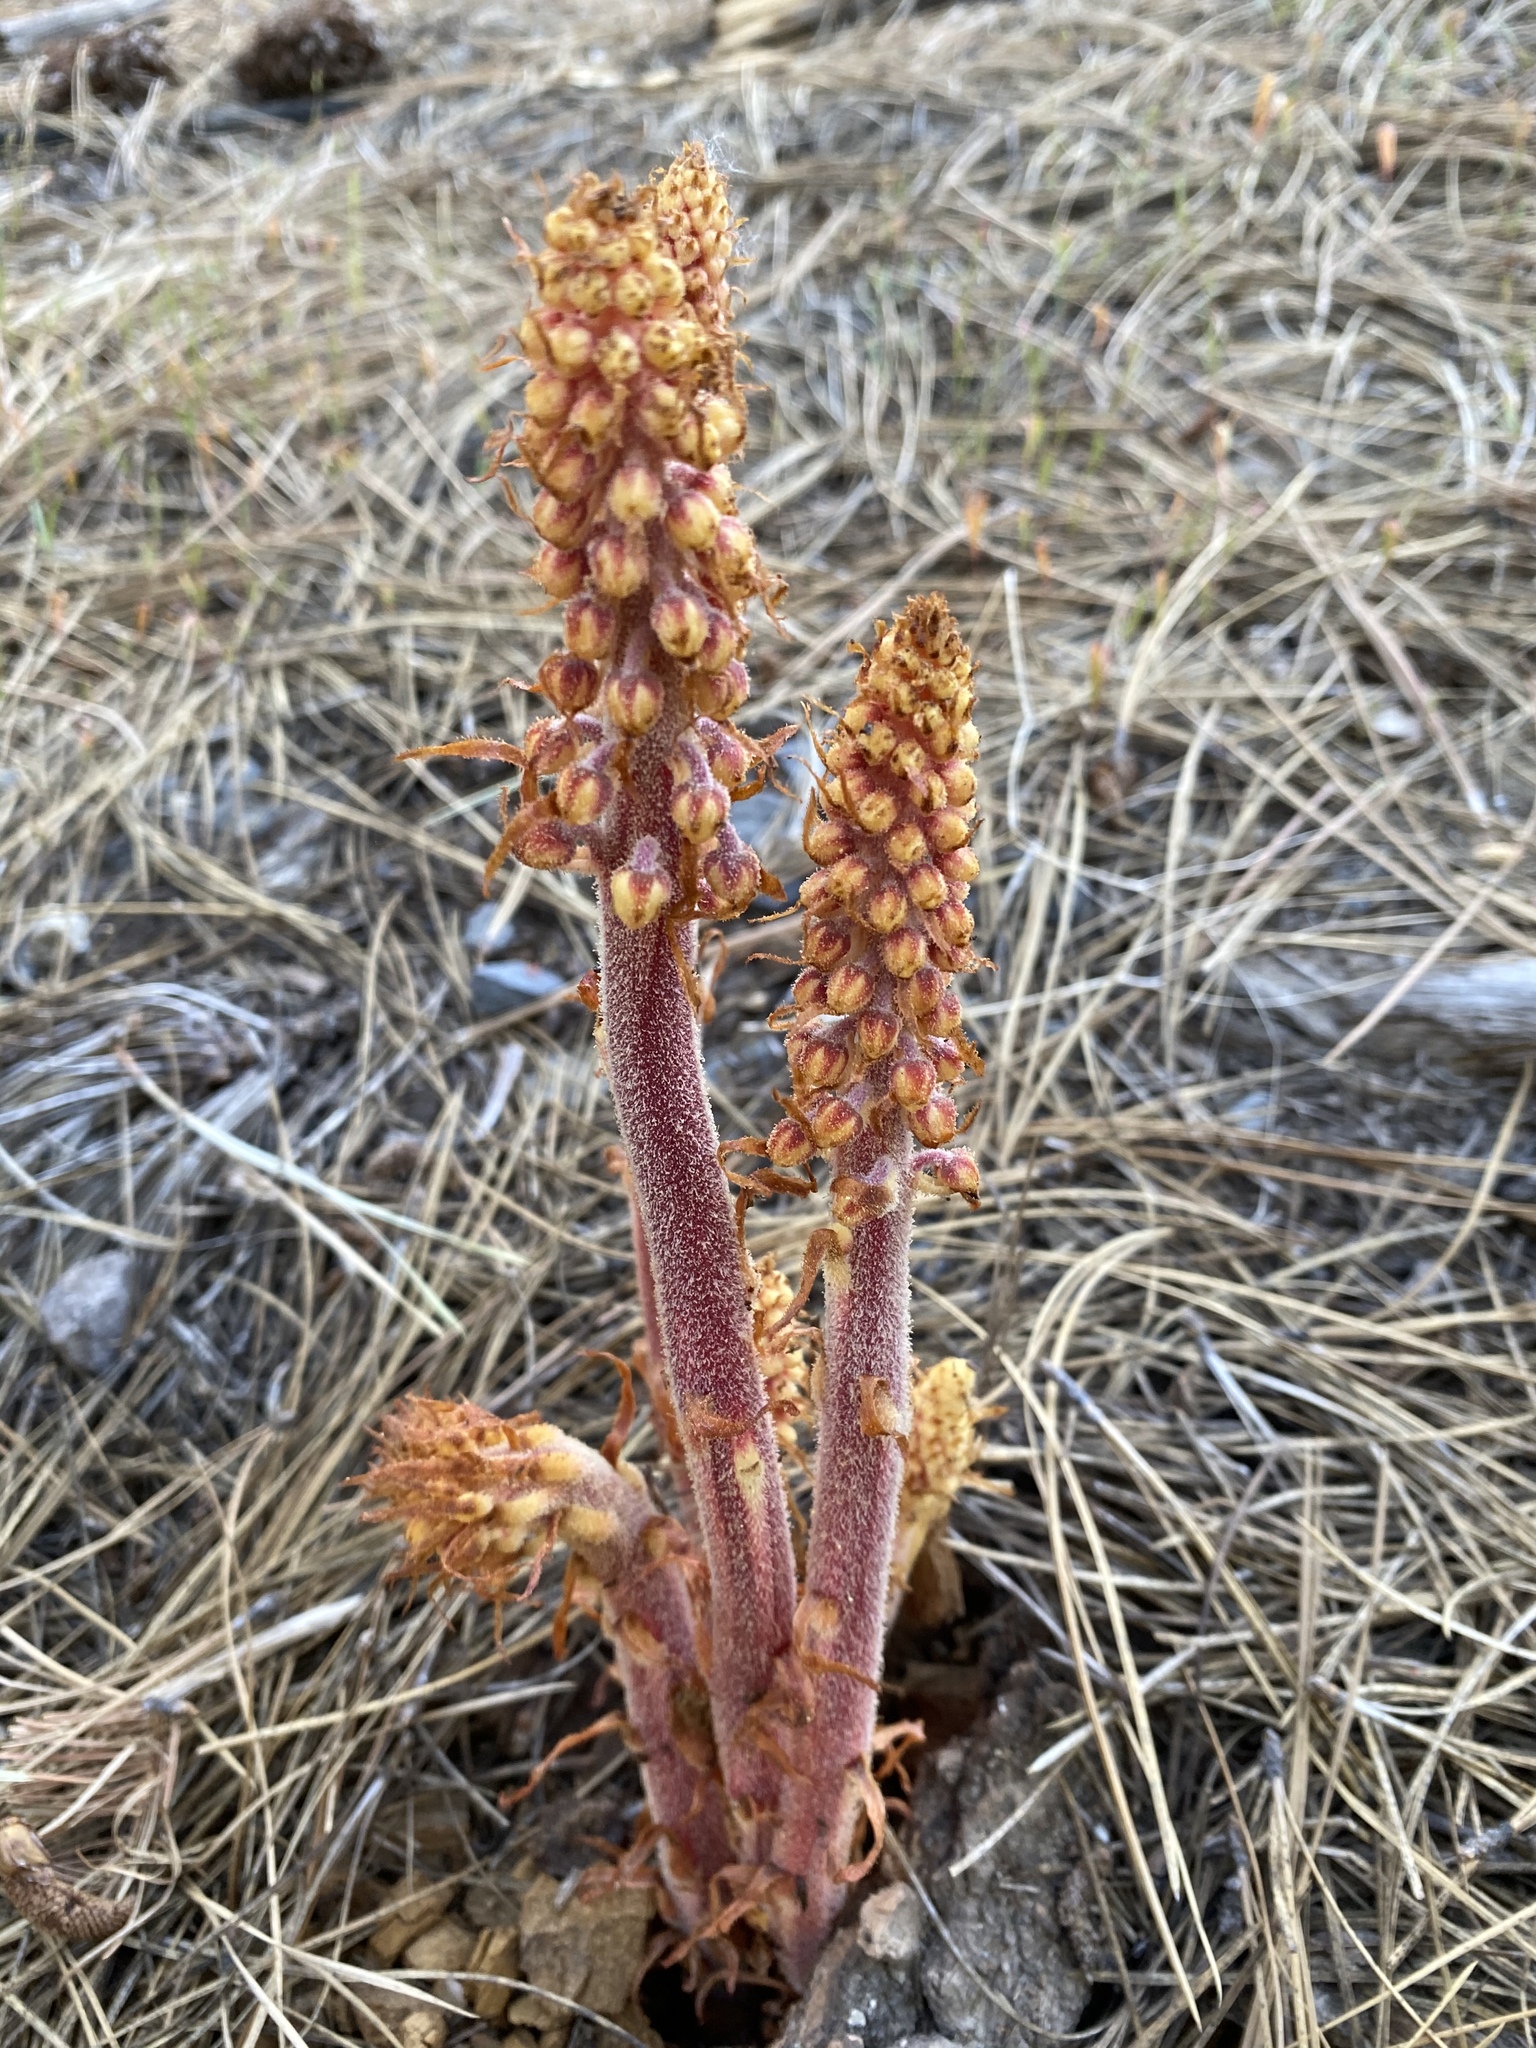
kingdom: Plantae
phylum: Tracheophyta
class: Magnoliopsida
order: Ericales
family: Ericaceae
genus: Pterospora
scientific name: Pterospora andromedea
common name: Giant bird's-nest
